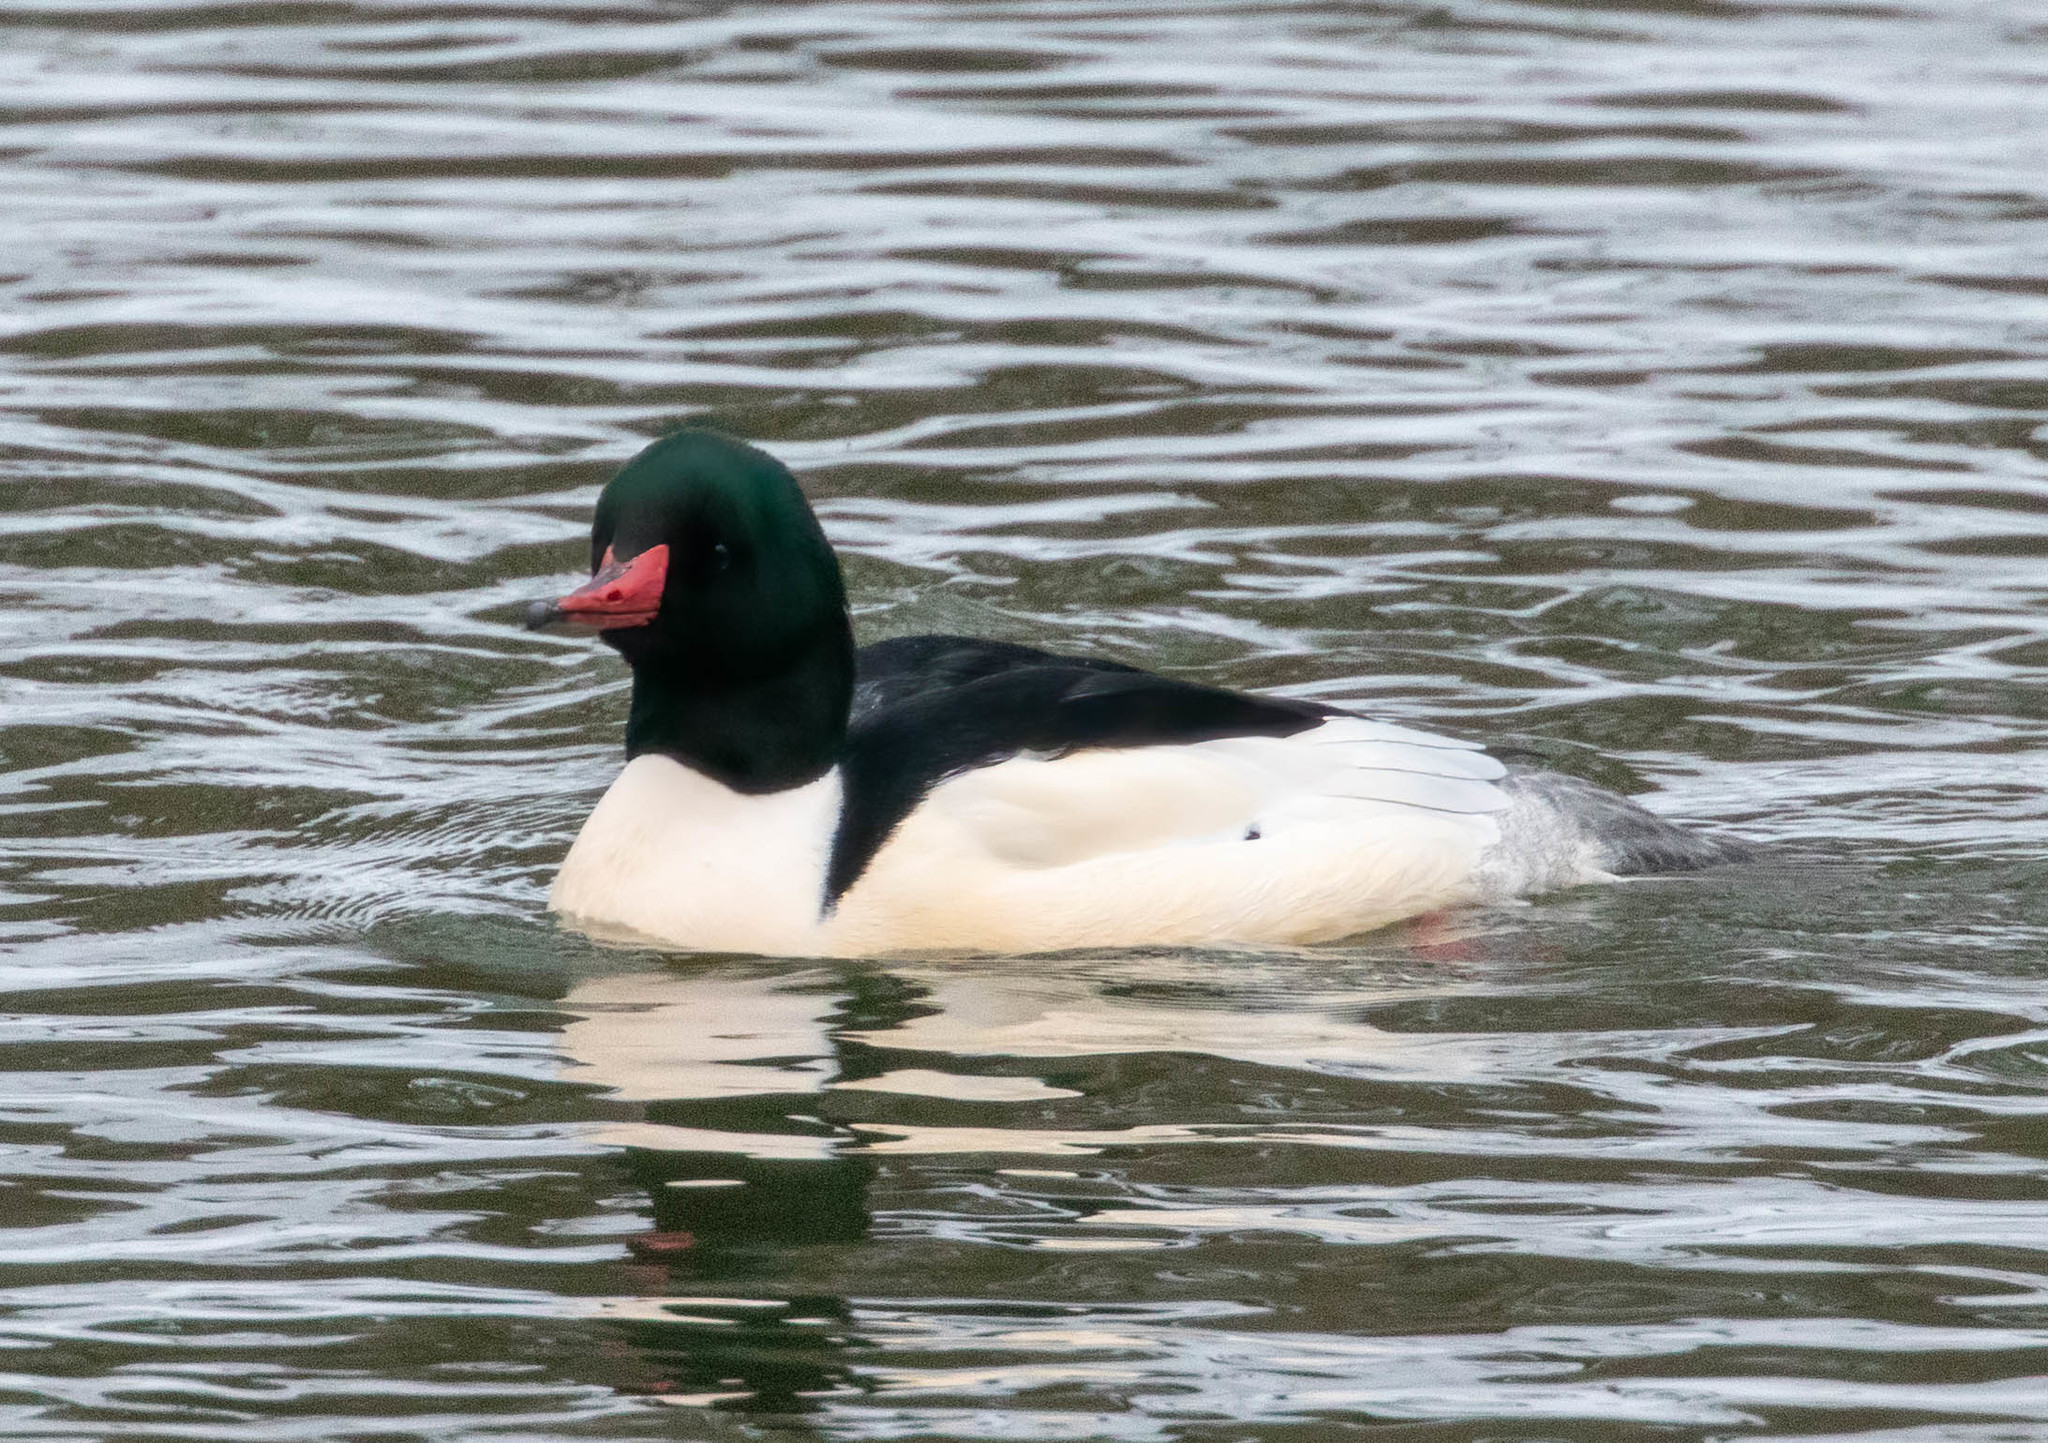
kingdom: Animalia
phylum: Chordata
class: Aves
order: Anseriformes
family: Anatidae
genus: Mergus
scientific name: Mergus merganser
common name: Common merganser
